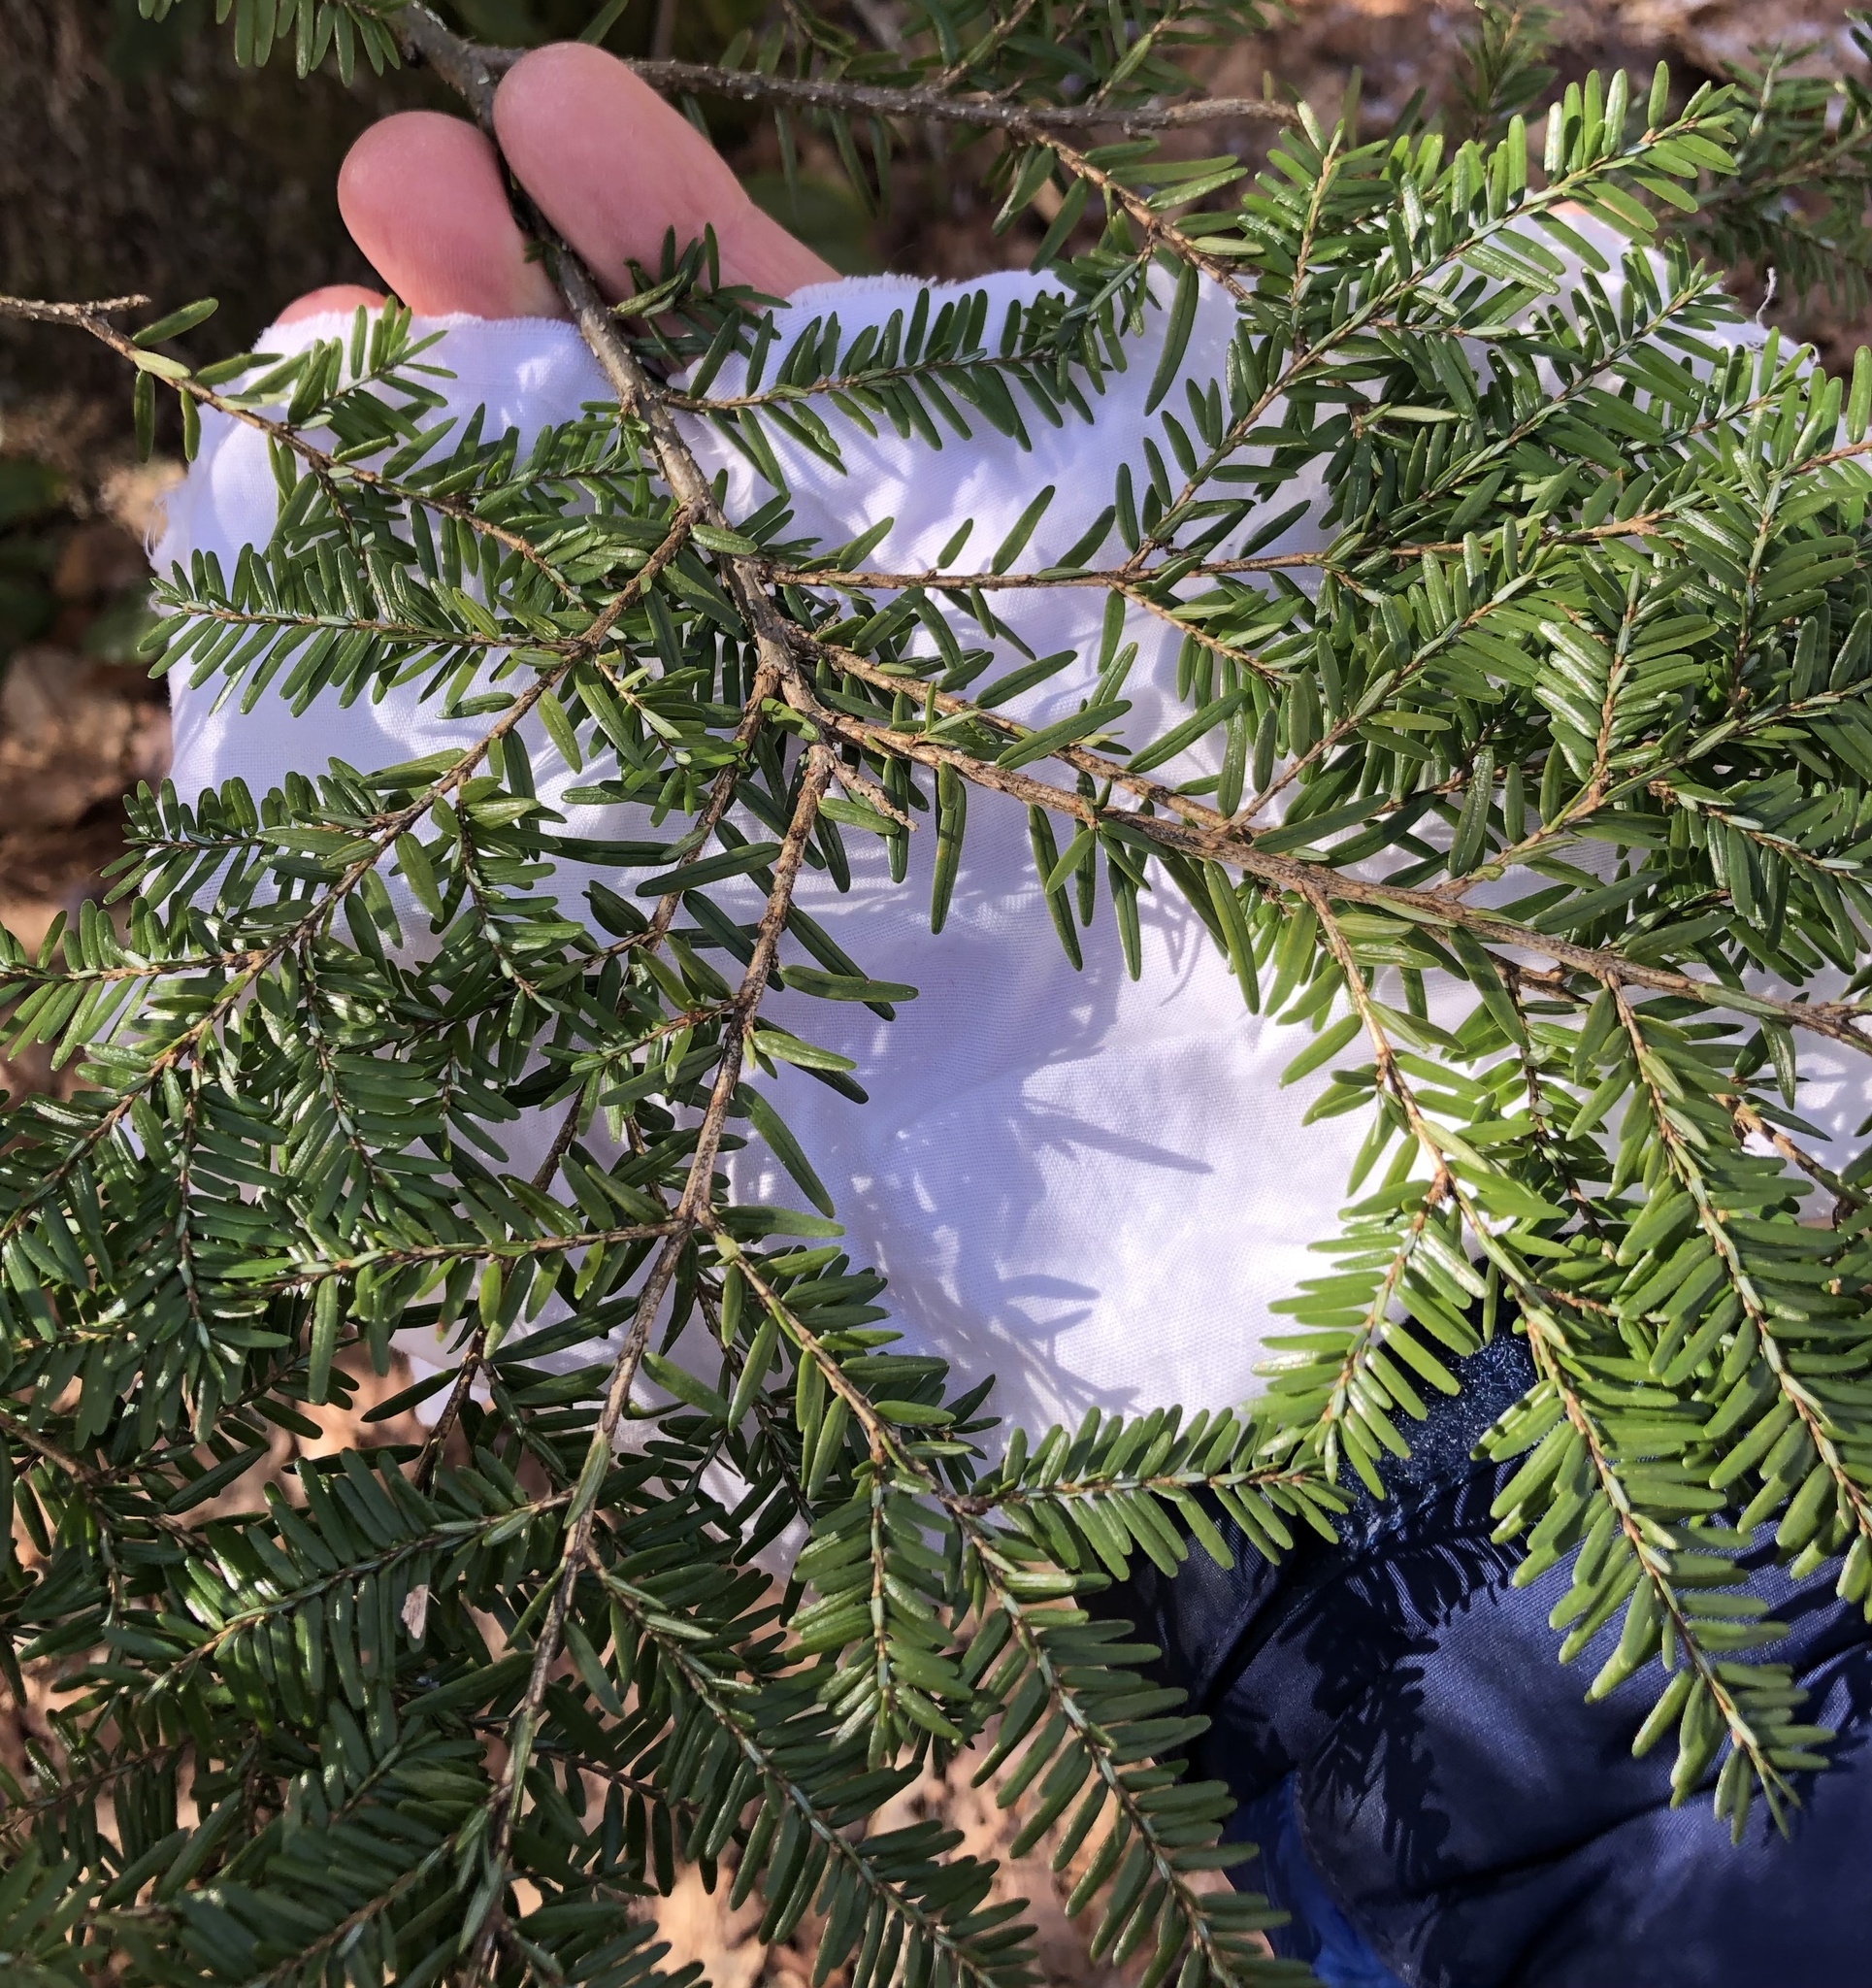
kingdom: Plantae
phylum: Tracheophyta
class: Pinopsida
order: Pinales
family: Pinaceae
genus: Tsuga
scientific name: Tsuga canadensis
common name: Eastern hemlock
